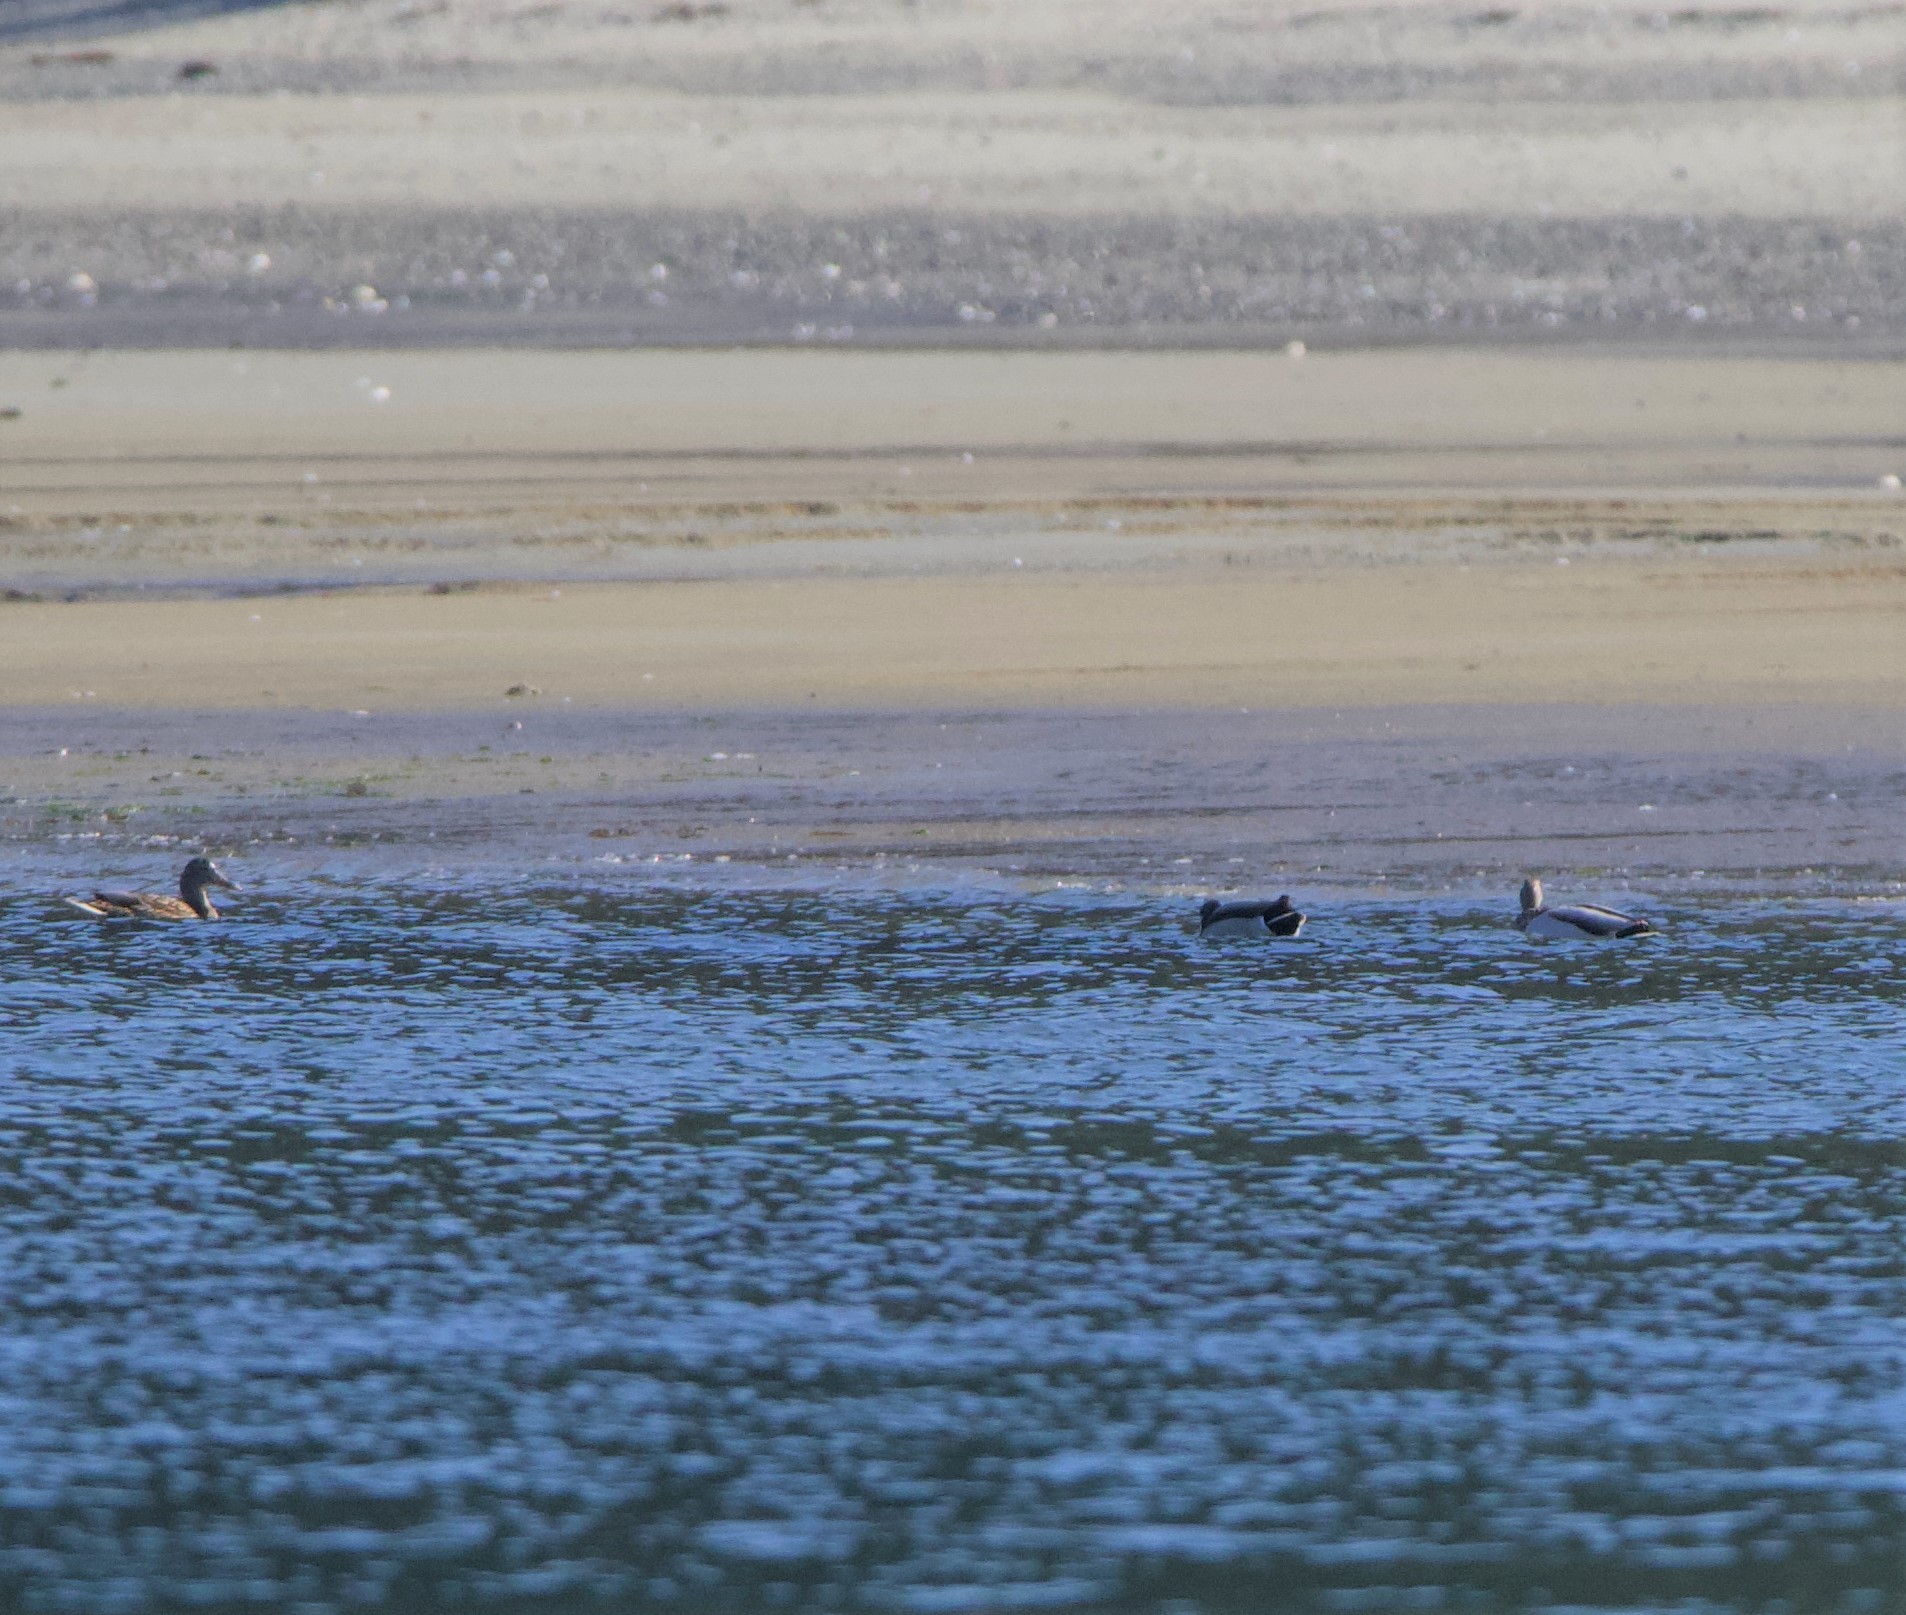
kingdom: Animalia
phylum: Chordata
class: Aves
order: Anseriformes
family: Anatidae
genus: Anas
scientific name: Anas platyrhynchos
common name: Mallard
